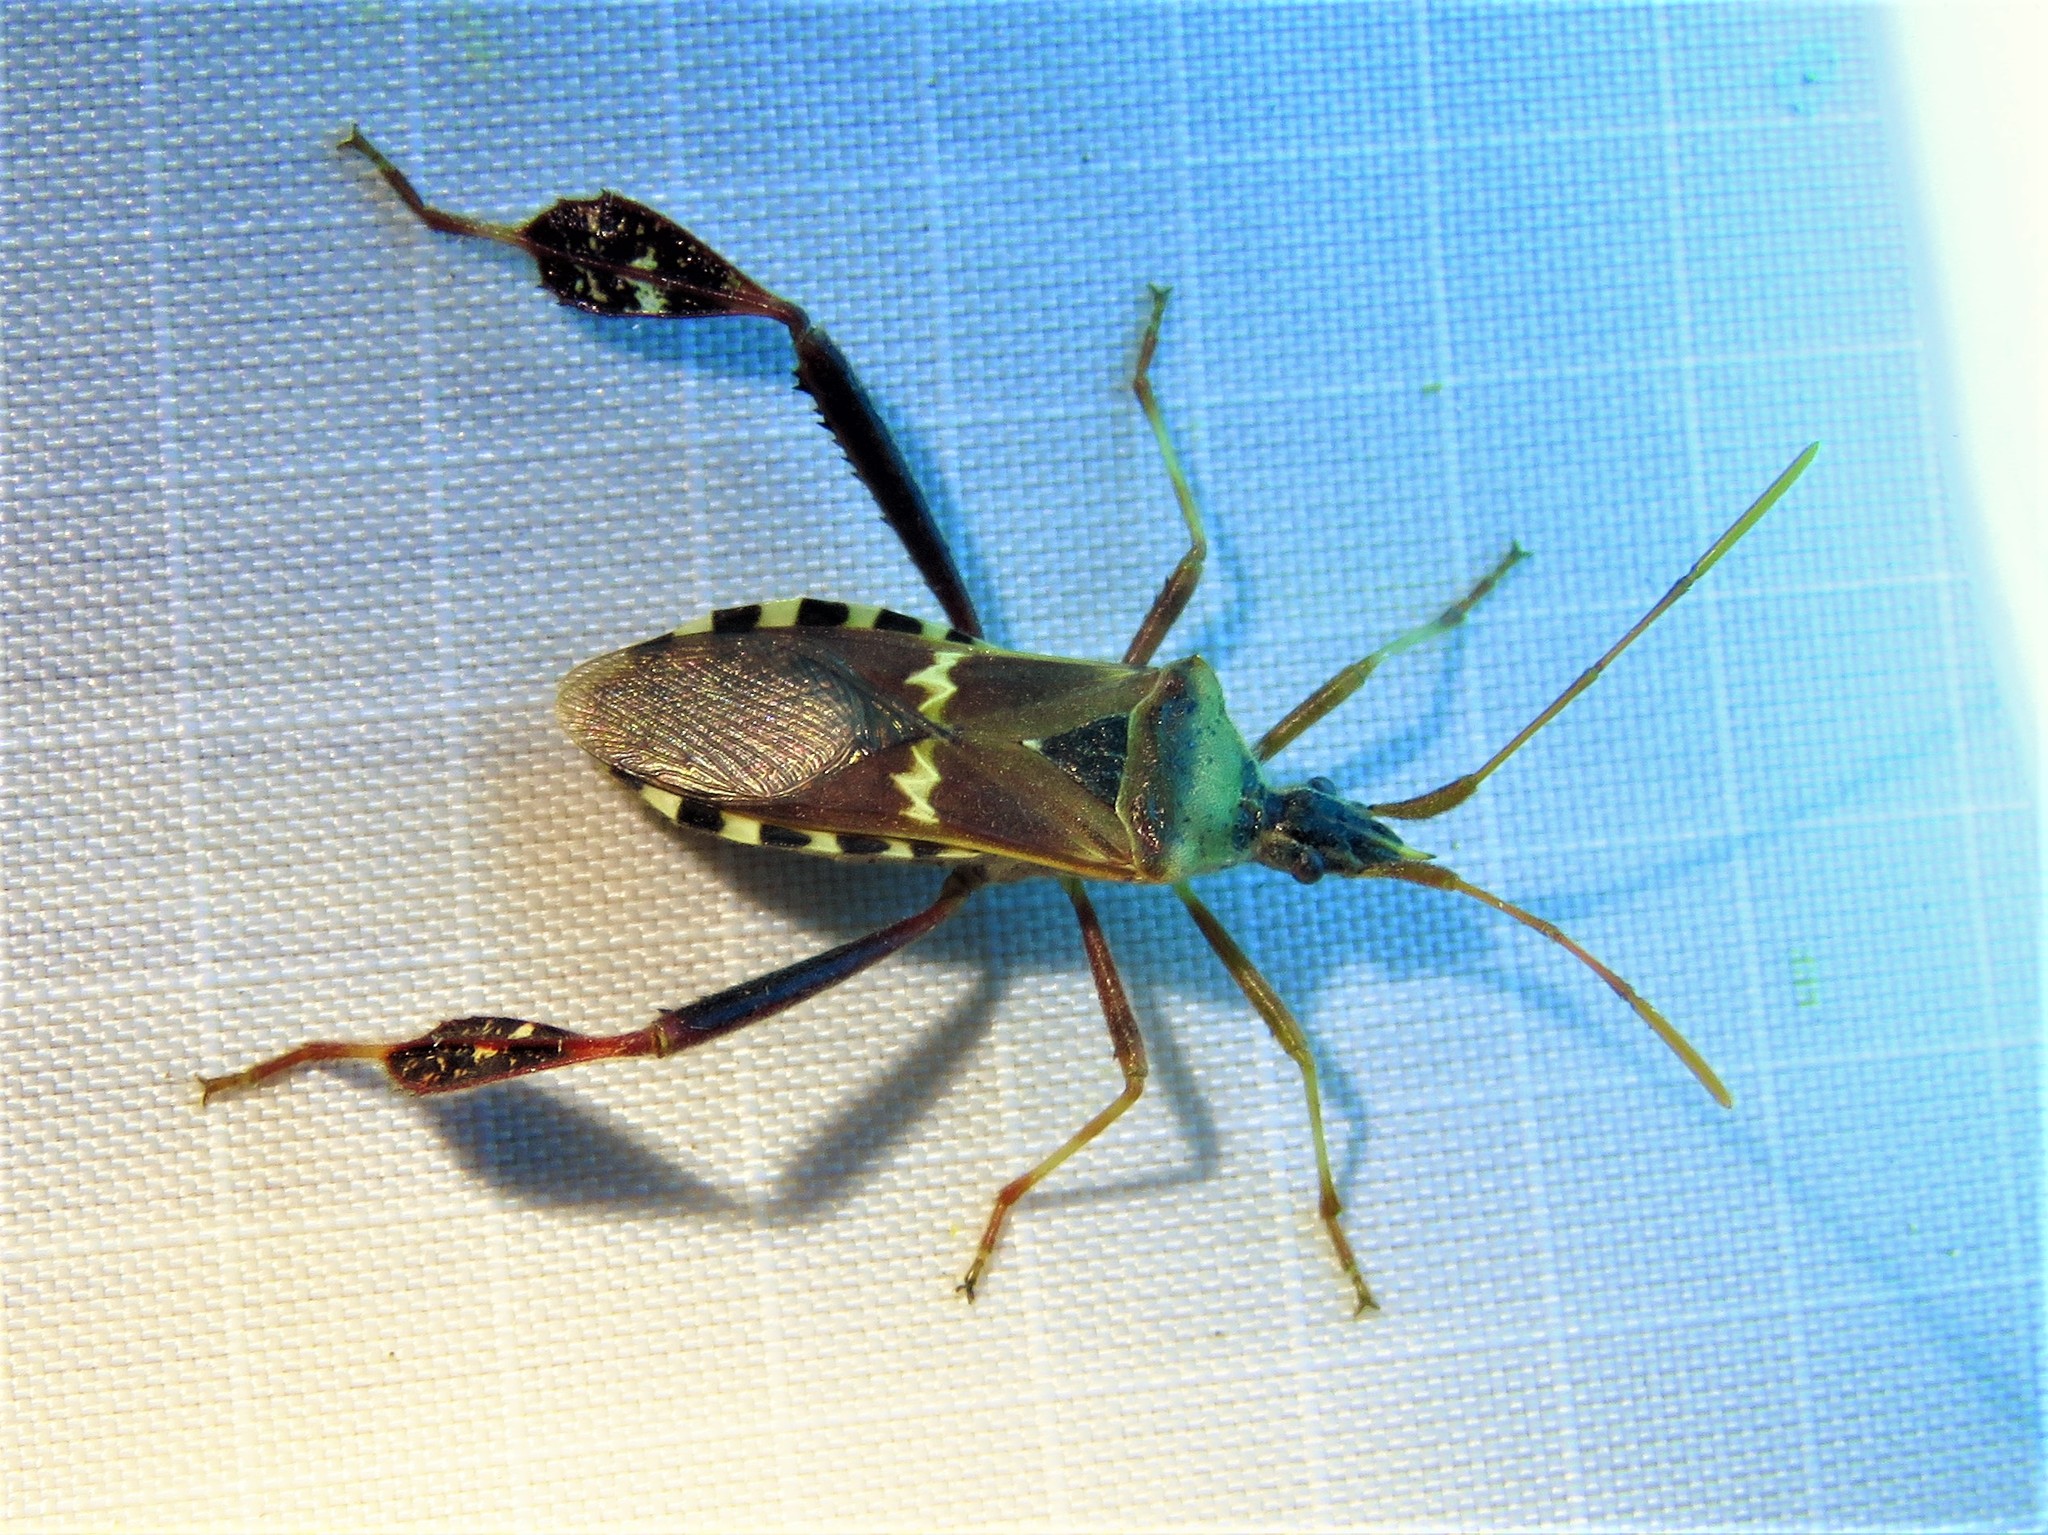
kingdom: Animalia
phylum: Arthropoda
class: Insecta
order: Hemiptera
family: Coreidae
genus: Leptoglossus
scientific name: Leptoglossus clypealis
